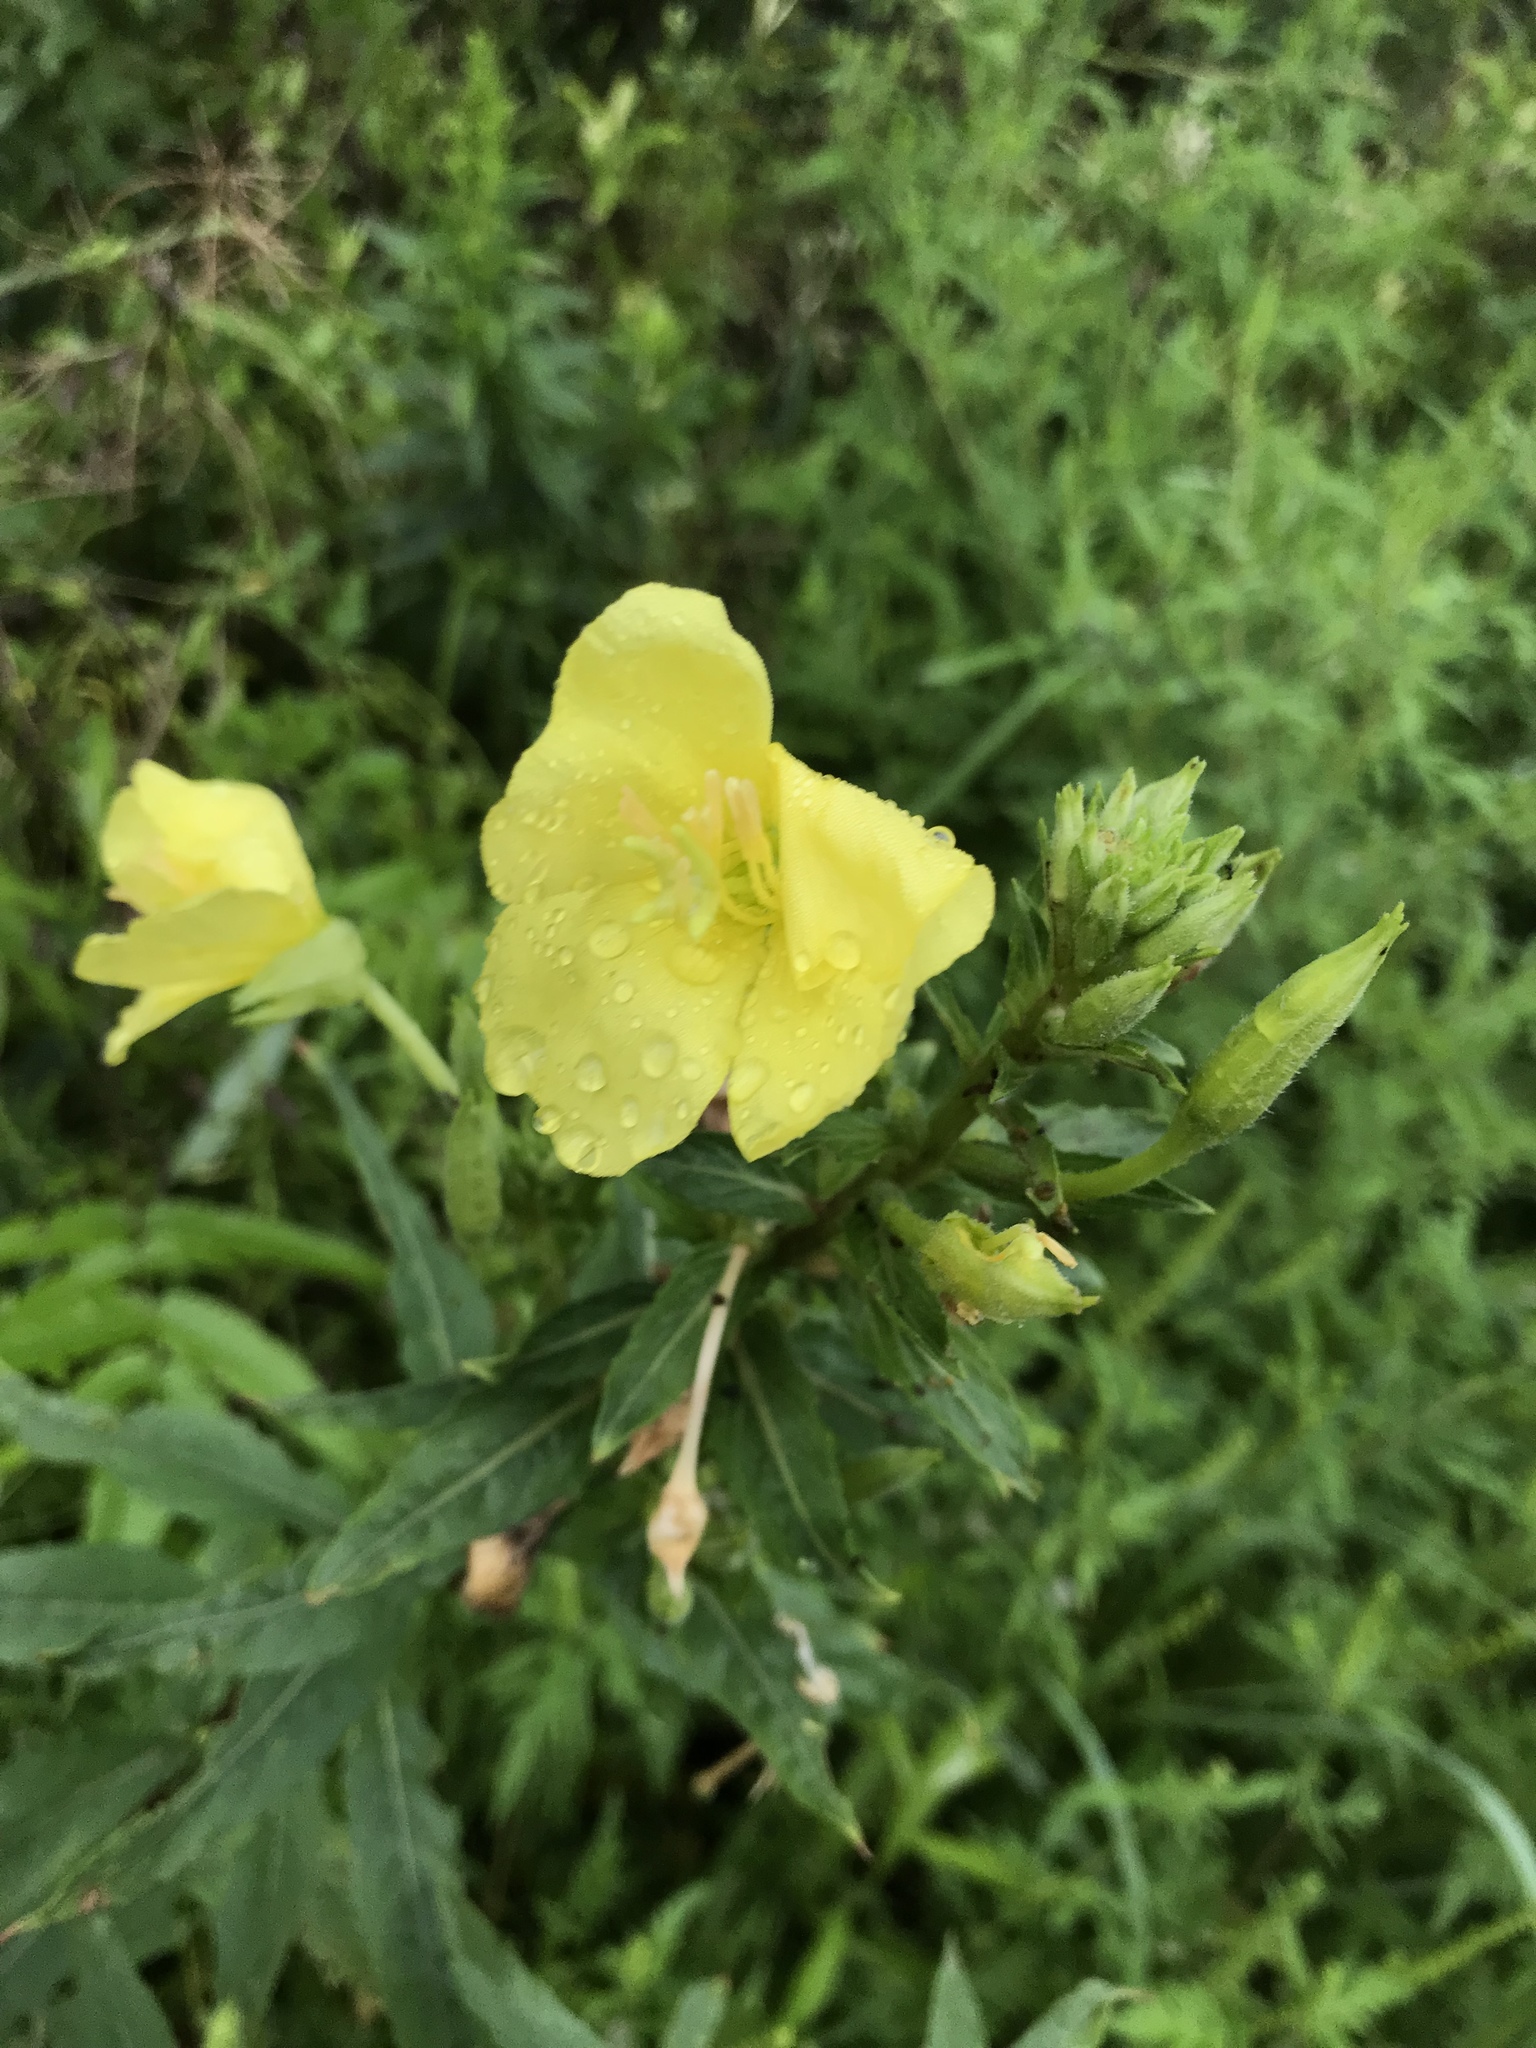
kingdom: Plantae
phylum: Tracheophyta
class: Magnoliopsida
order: Myrtales
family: Onagraceae
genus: Oenothera
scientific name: Oenothera biennis
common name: Common evening-primrose
